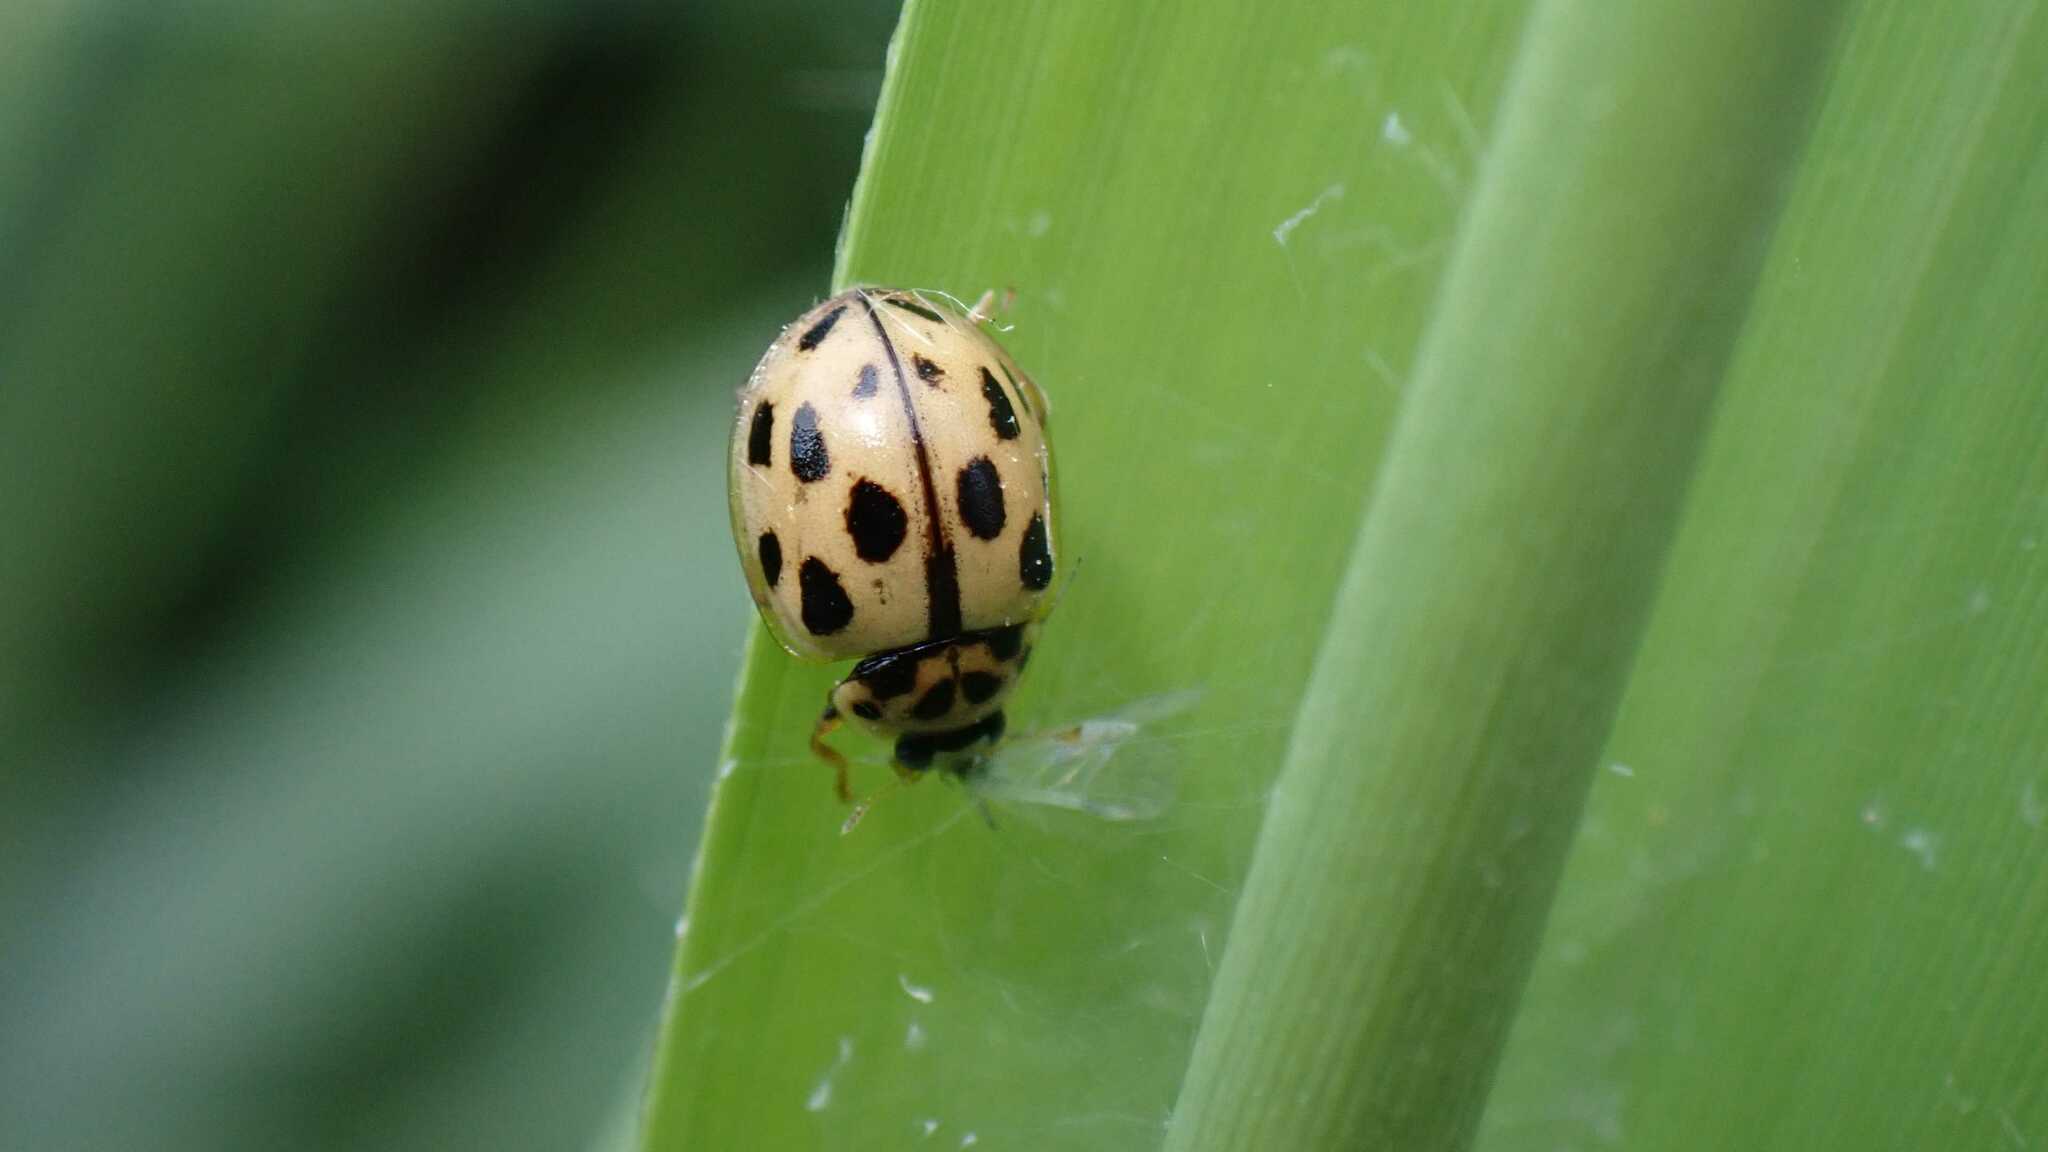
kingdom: Animalia
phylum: Arthropoda
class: Insecta
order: Coleoptera
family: Coccinellidae
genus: Propylaea
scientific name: Propylaea quatuordecimpunctata
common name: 14-spotted ladybird beetle
